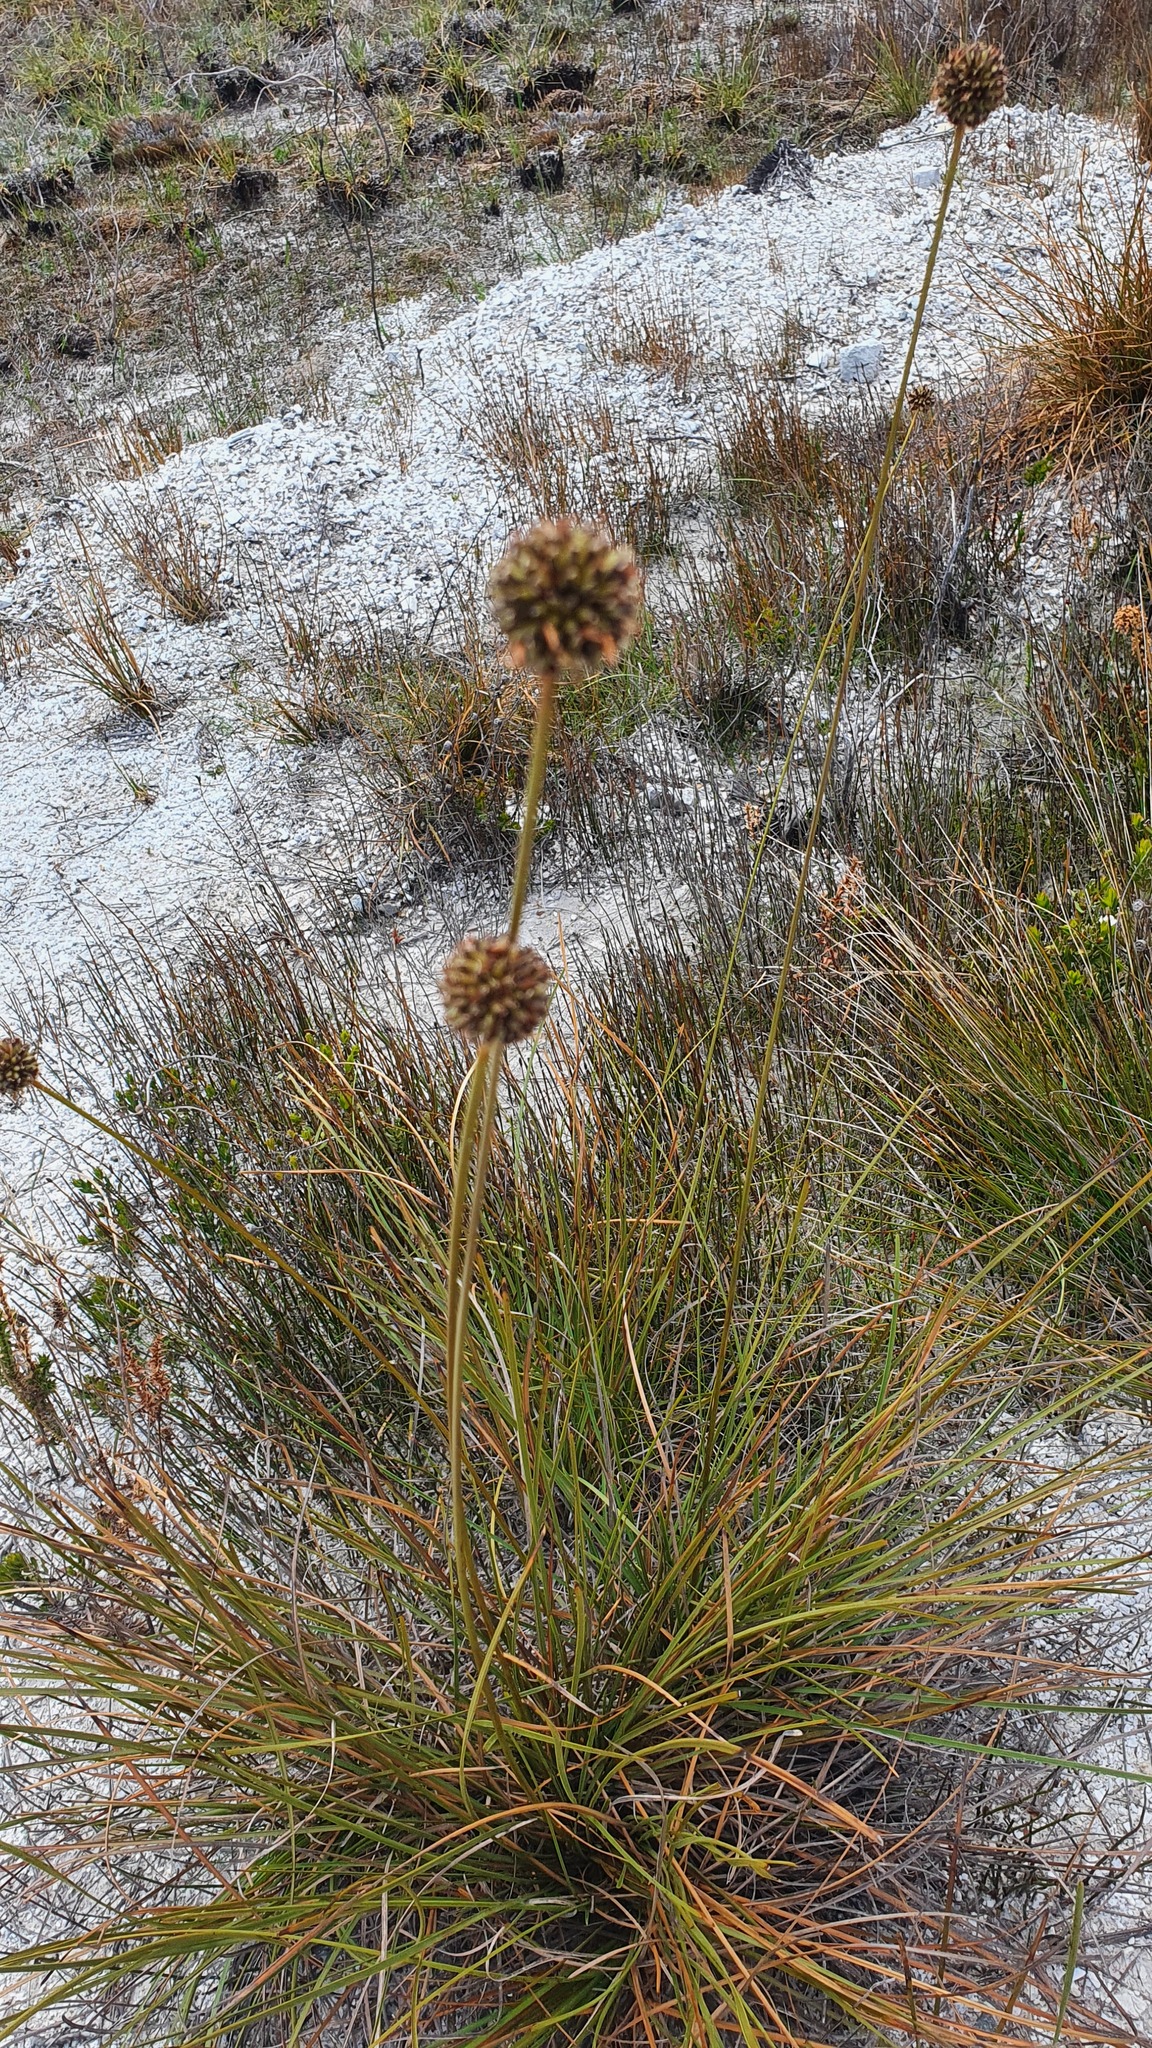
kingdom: Plantae
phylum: Tracheophyta
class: Liliopsida
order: Poales
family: Cyperaceae
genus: Gymnoschoenus
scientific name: Gymnoschoenus sphaerocephalus
